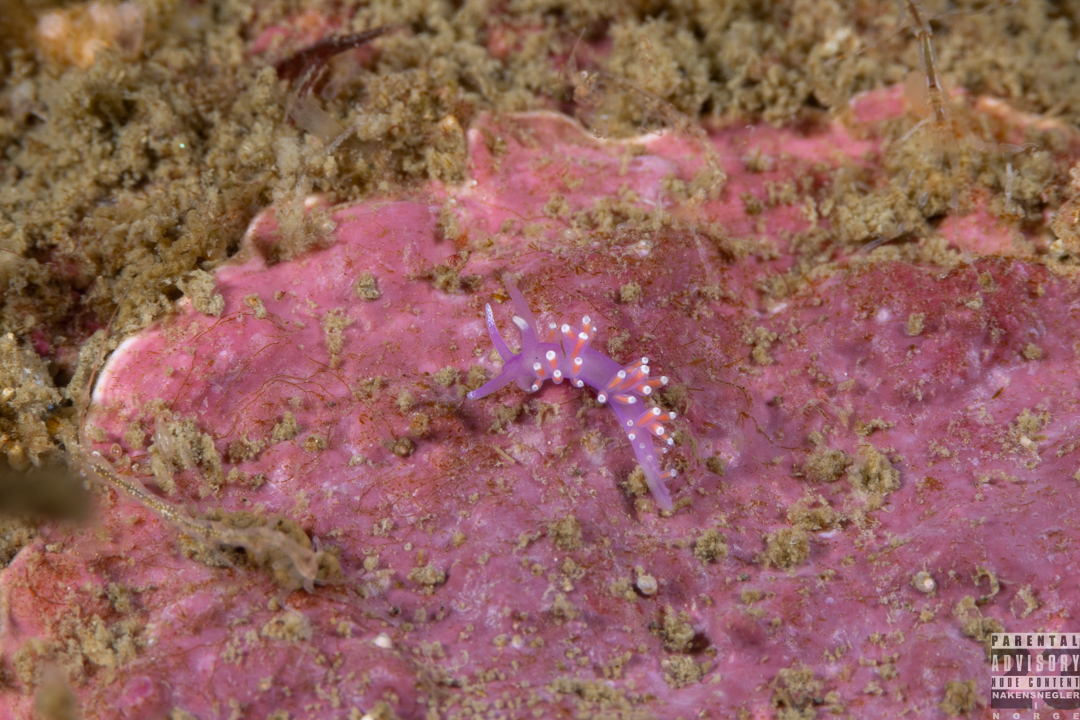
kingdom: Animalia
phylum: Mollusca
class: Gastropoda
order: Nudibranchia
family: Flabellinidae
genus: Edmundsella
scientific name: Edmundsella pedata
